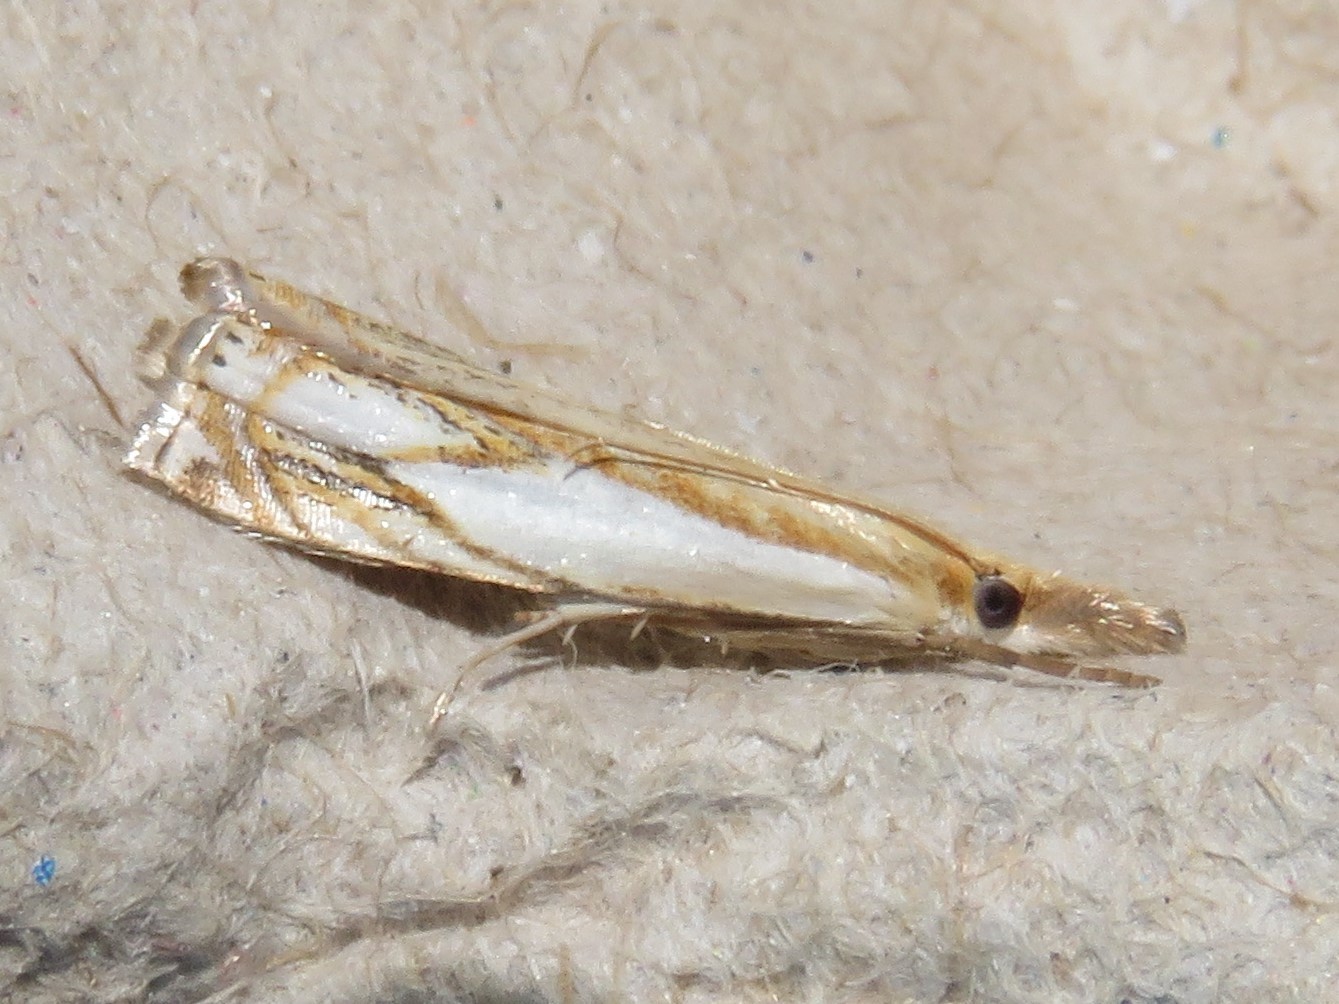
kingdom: Animalia
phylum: Arthropoda
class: Insecta
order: Lepidoptera
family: Crambidae
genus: Crambus
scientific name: Crambus agitatellus
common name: Double-banded grass-veneer
